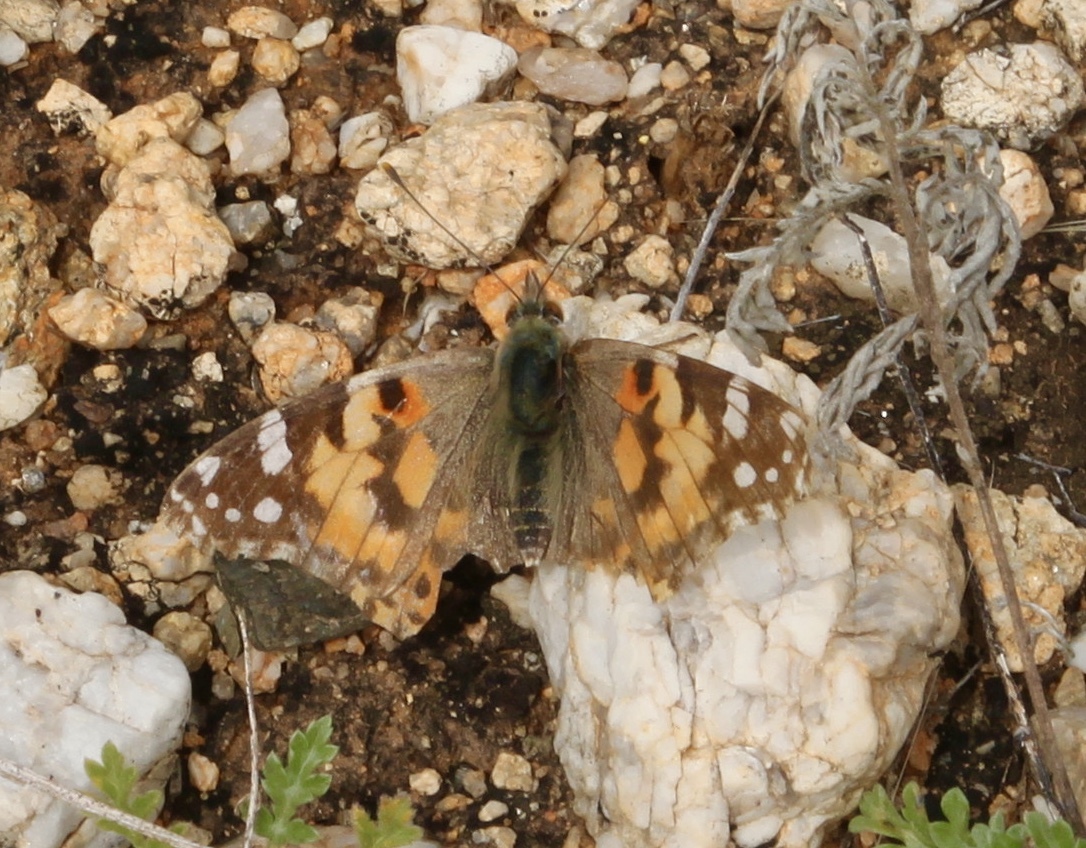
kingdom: Animalia
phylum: Arthropoda
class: Insecta
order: Lepidoptera
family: Nymphalidae
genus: Vanessa
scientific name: Vanessa cardui
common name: Painted lady
